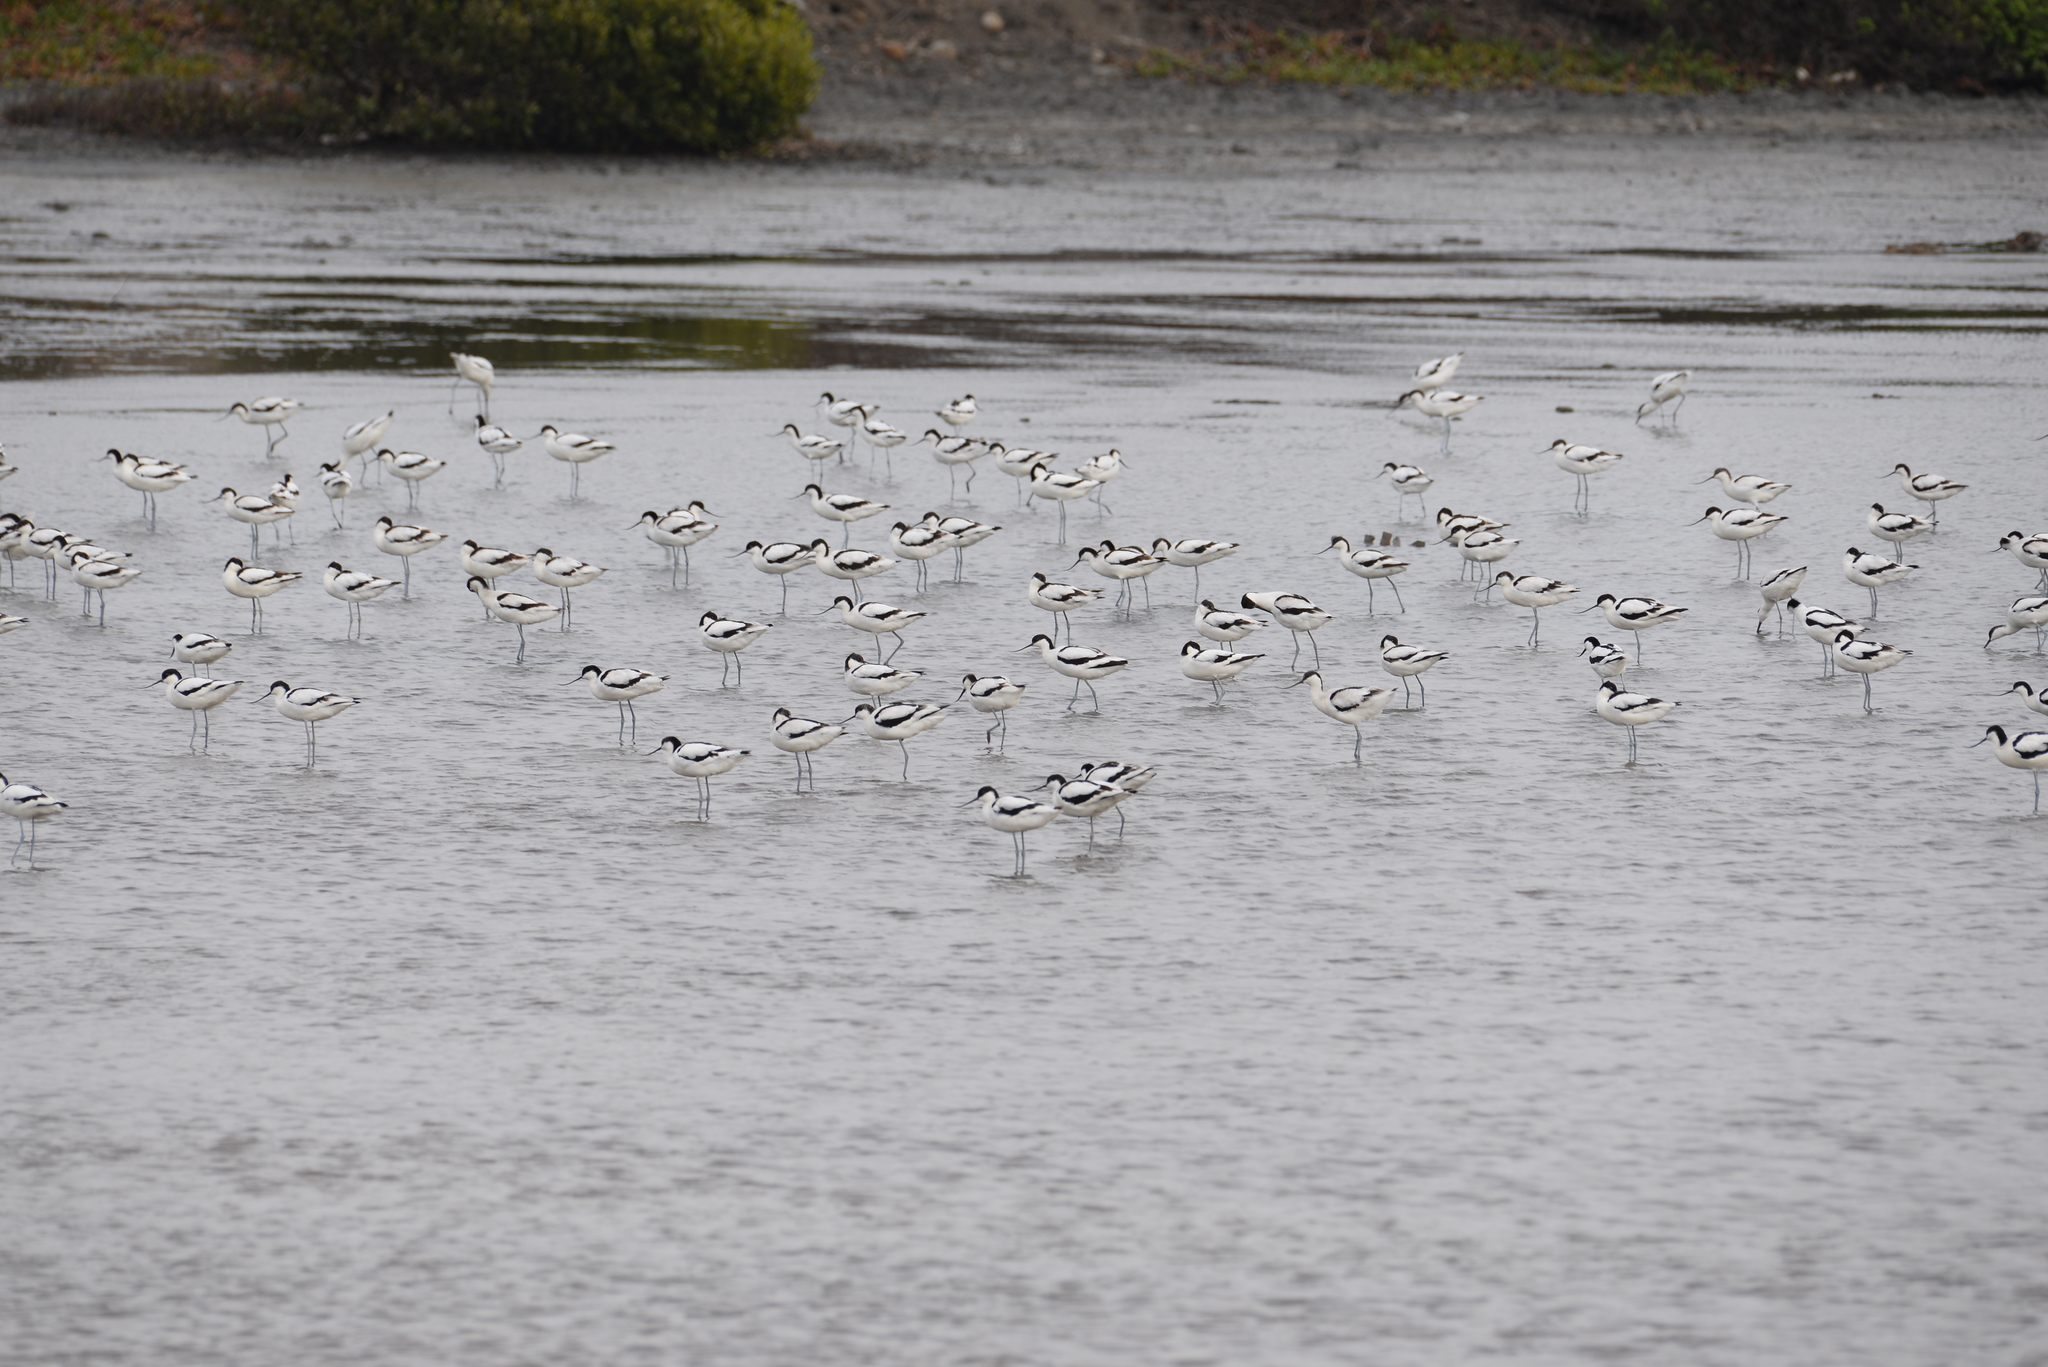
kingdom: Animalia
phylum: Chordata
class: Aves
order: Charadriiformes
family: Recurvirostridae
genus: Recurvirostra
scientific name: Recurvirostra avosetta
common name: Pied avocet
